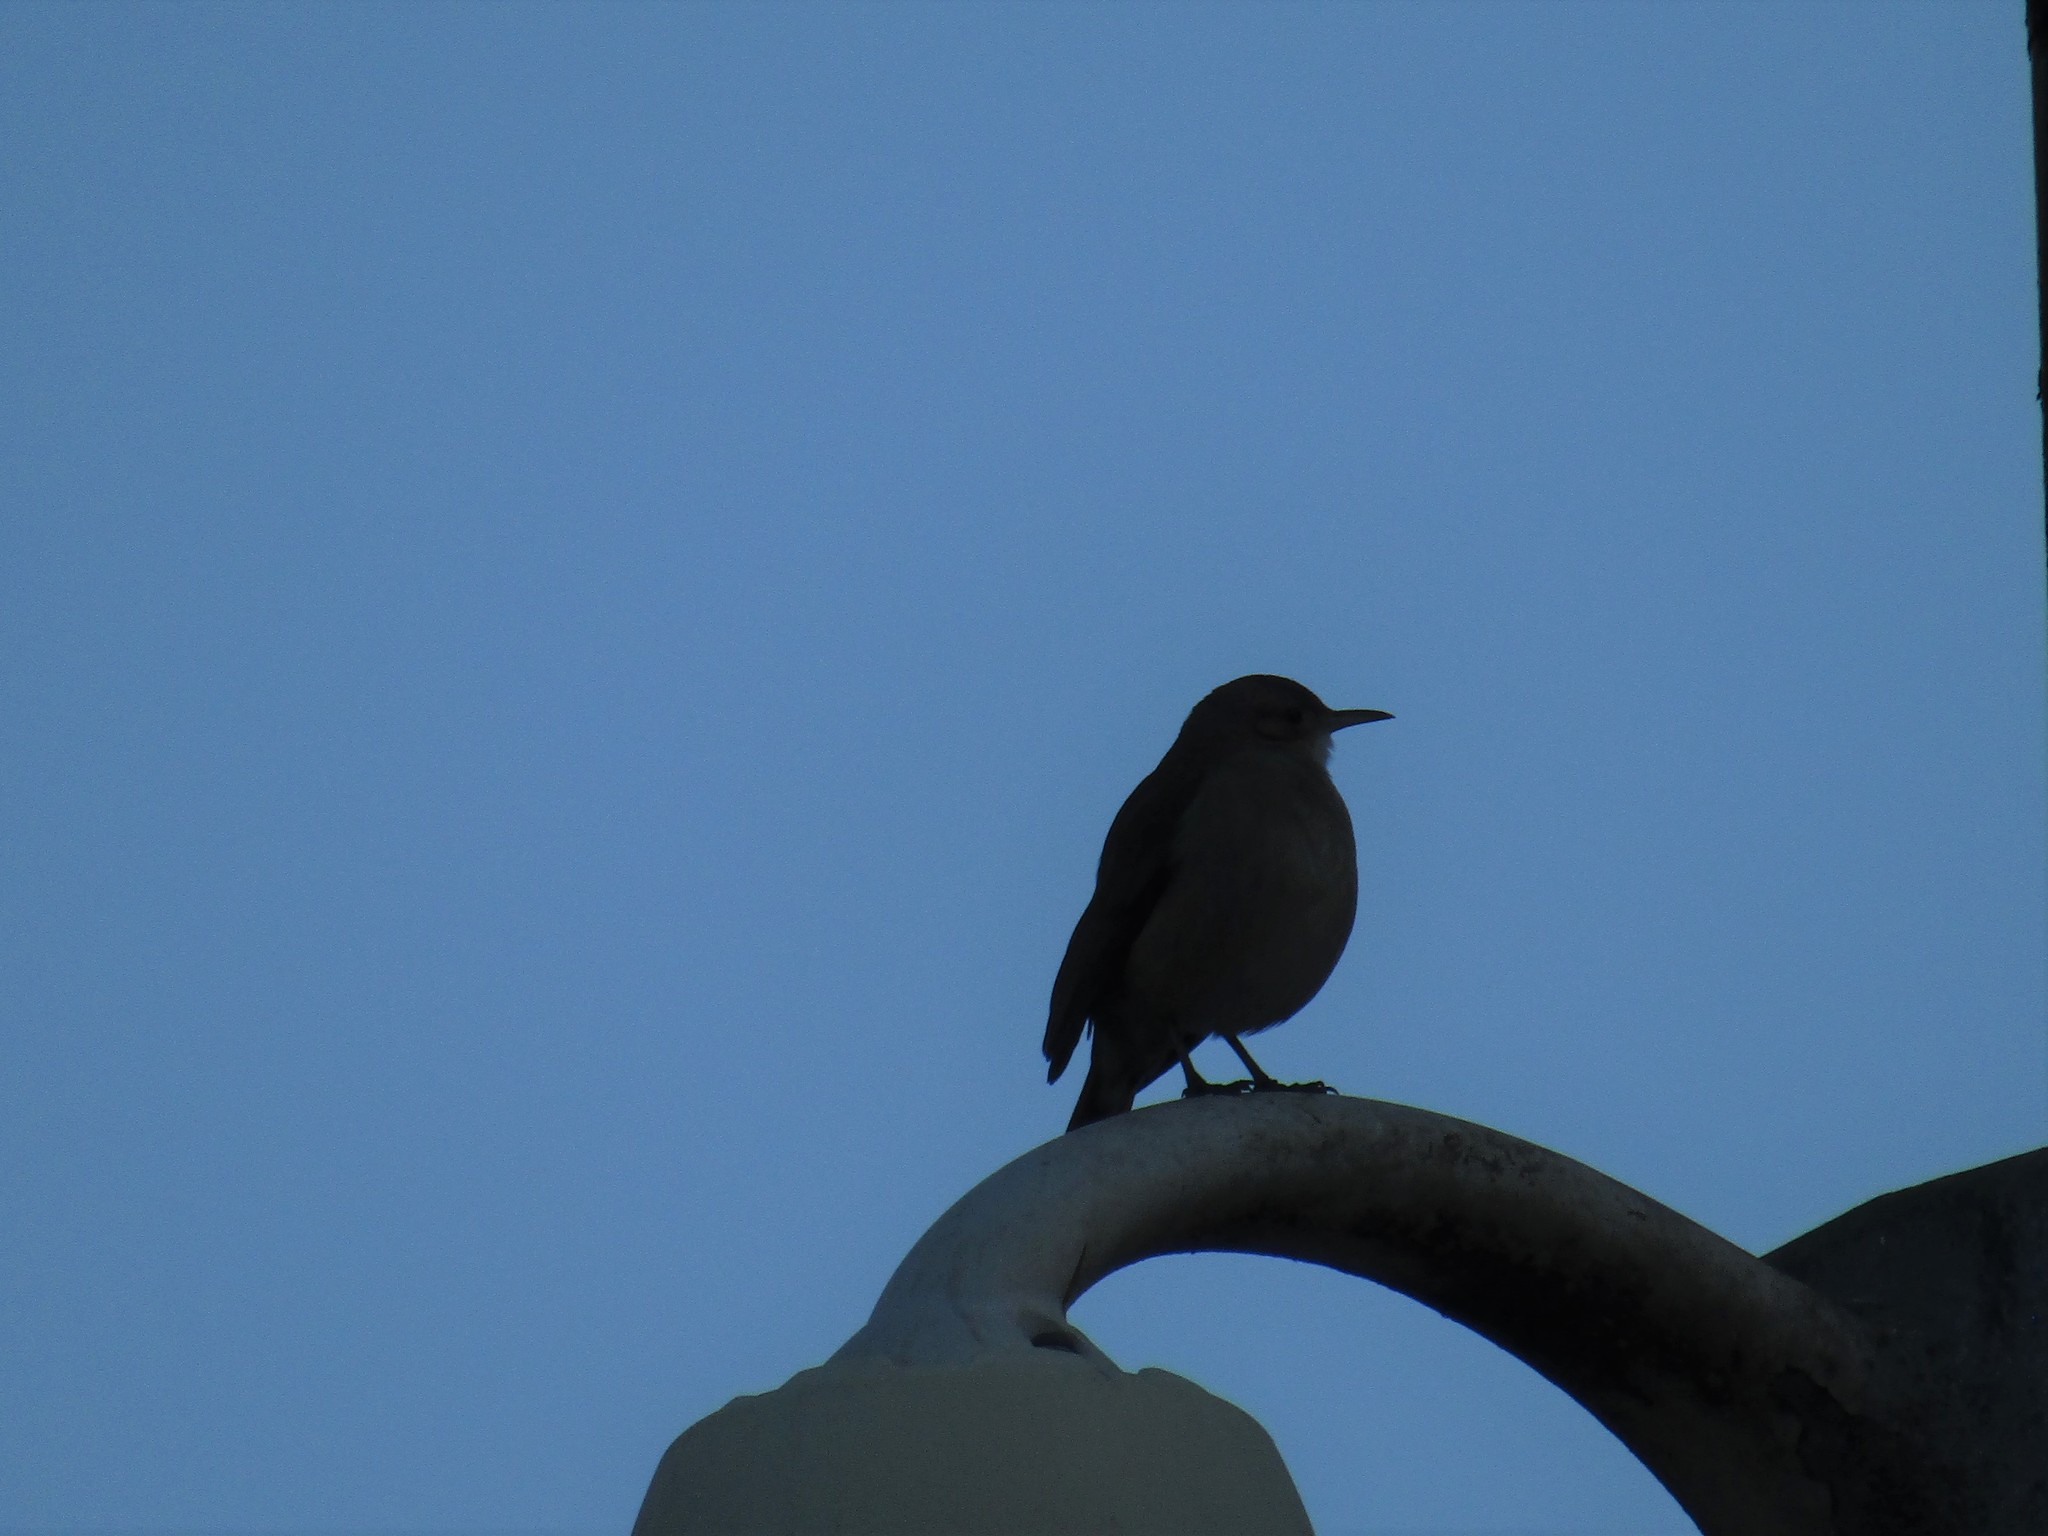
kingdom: Animalia
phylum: Chordata
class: Aves
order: Passeriformes
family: Furnariidae
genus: Furnarius
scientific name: Furnarius rufus
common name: Rufous hornero
